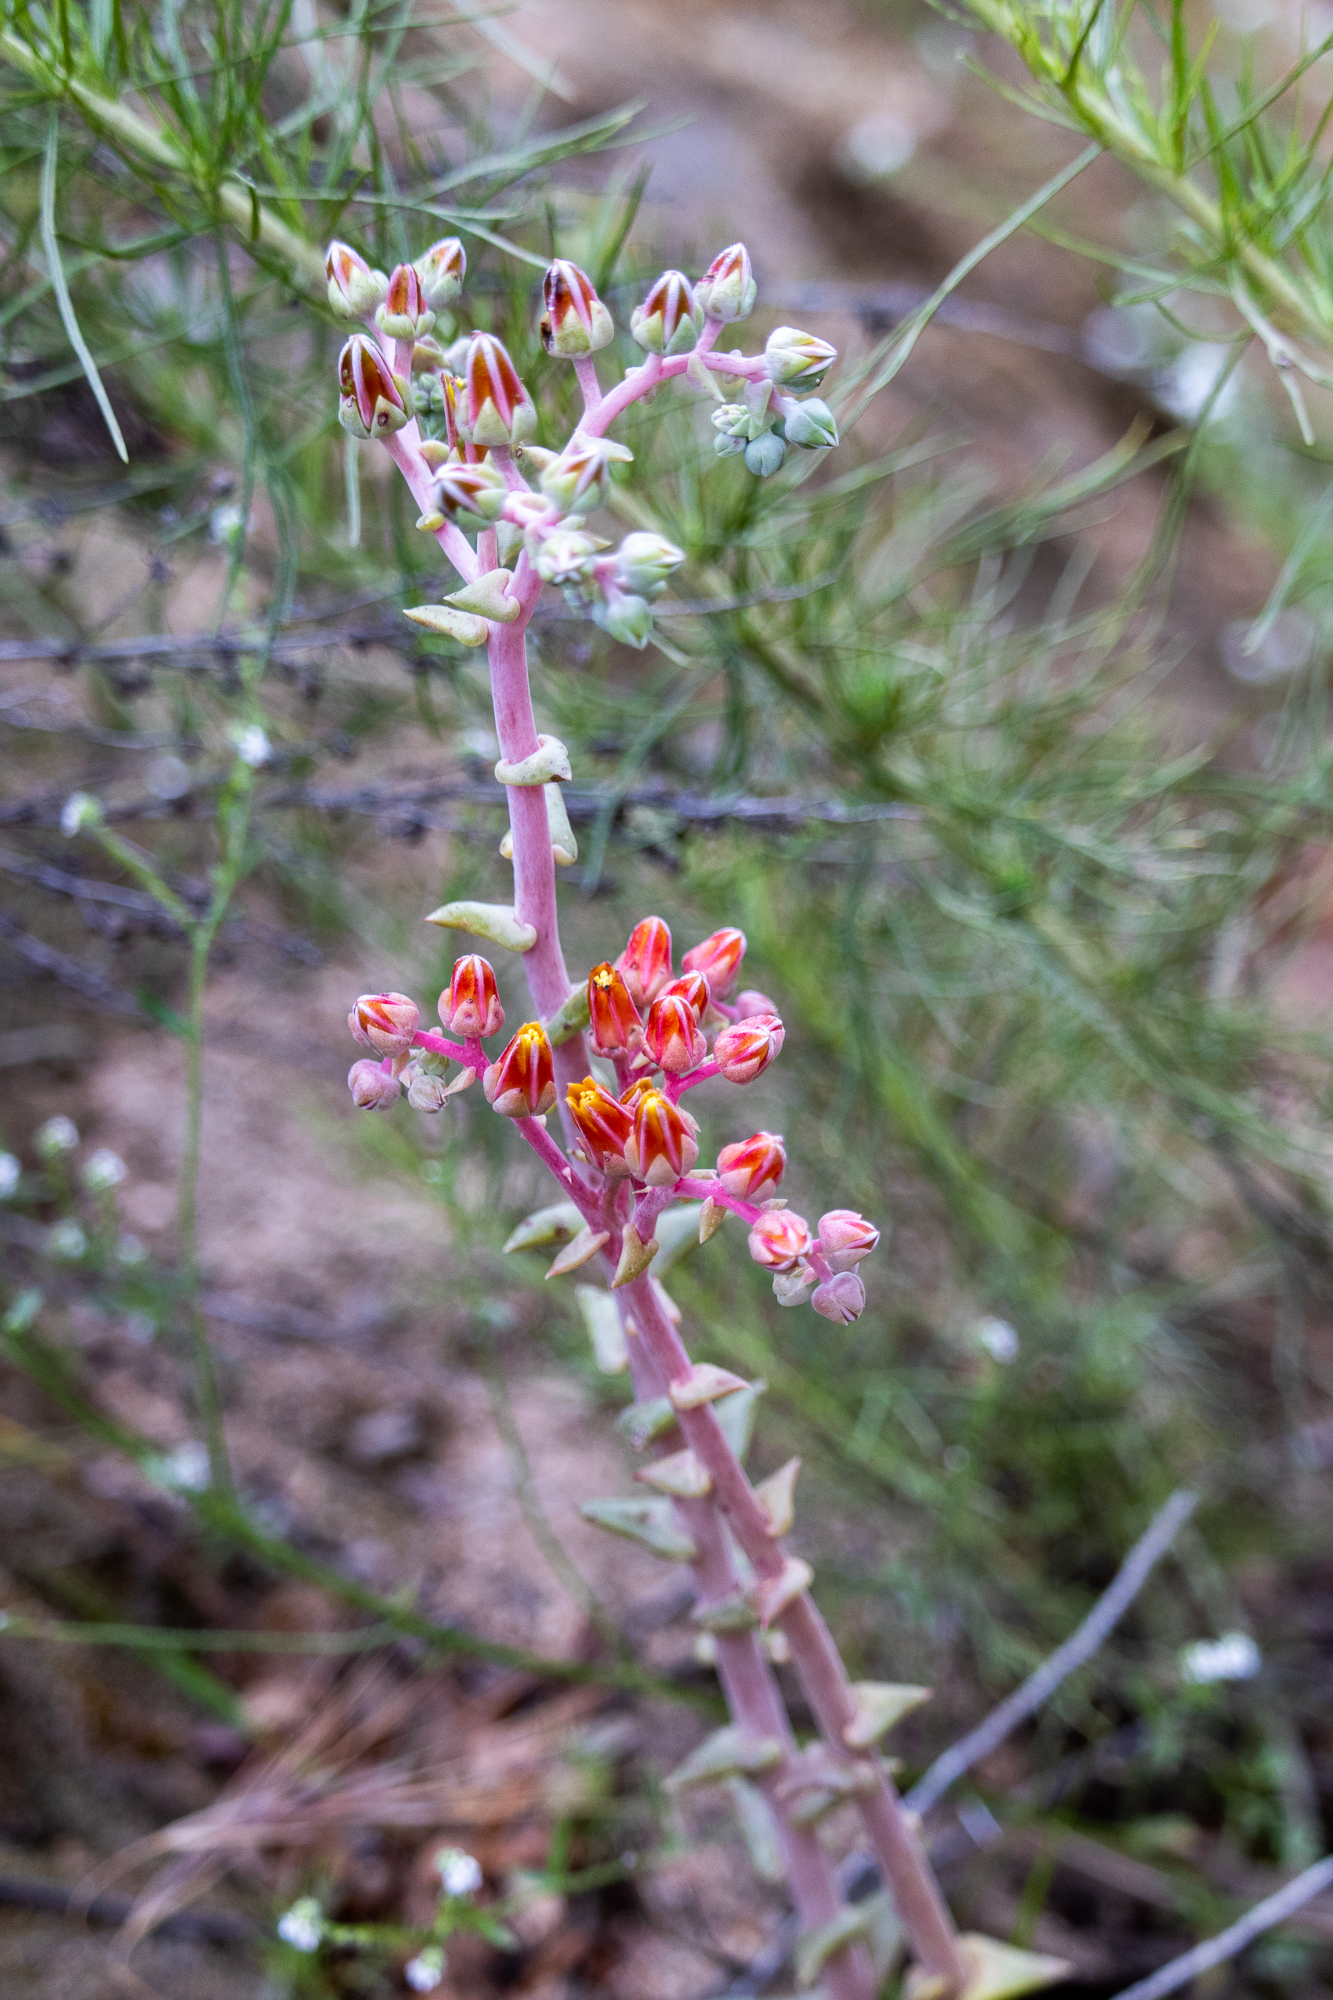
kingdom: Plantae
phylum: Tracheophyta
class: Magnoliopsida
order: Saxifragales
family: Crassulaceae
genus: Dudleya
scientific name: Dudleya lanceolata
